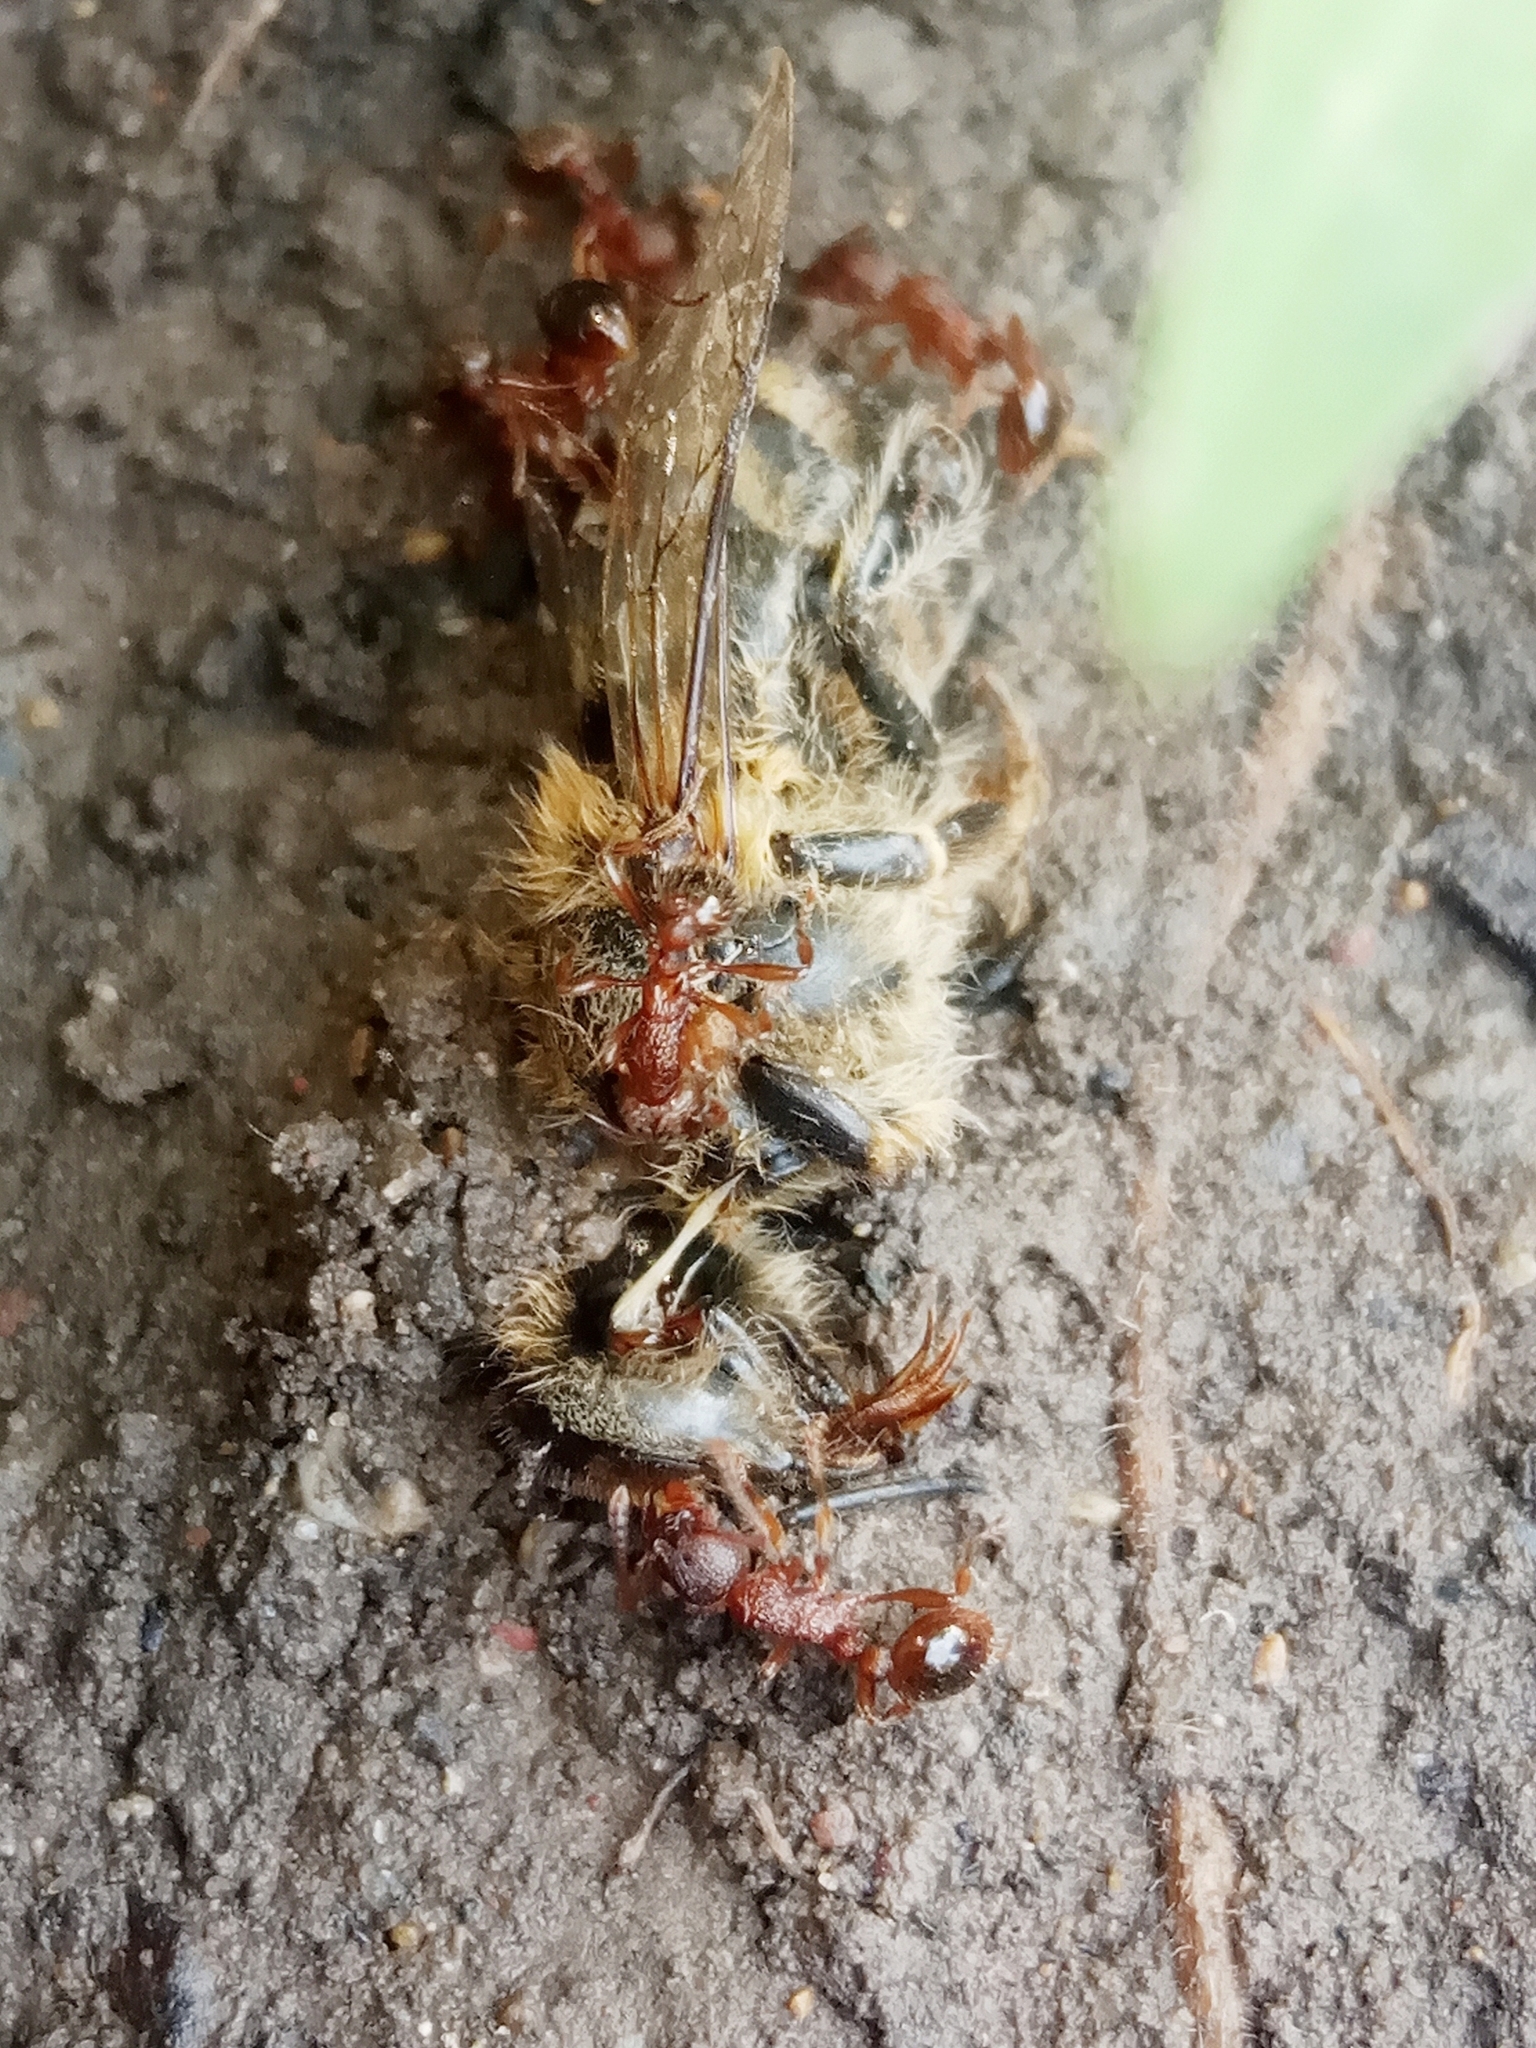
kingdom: Animalia
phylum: Arthropoda
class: Insecta
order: Hymenoptera
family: Formicidae
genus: Myrmica
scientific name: Myrmica
